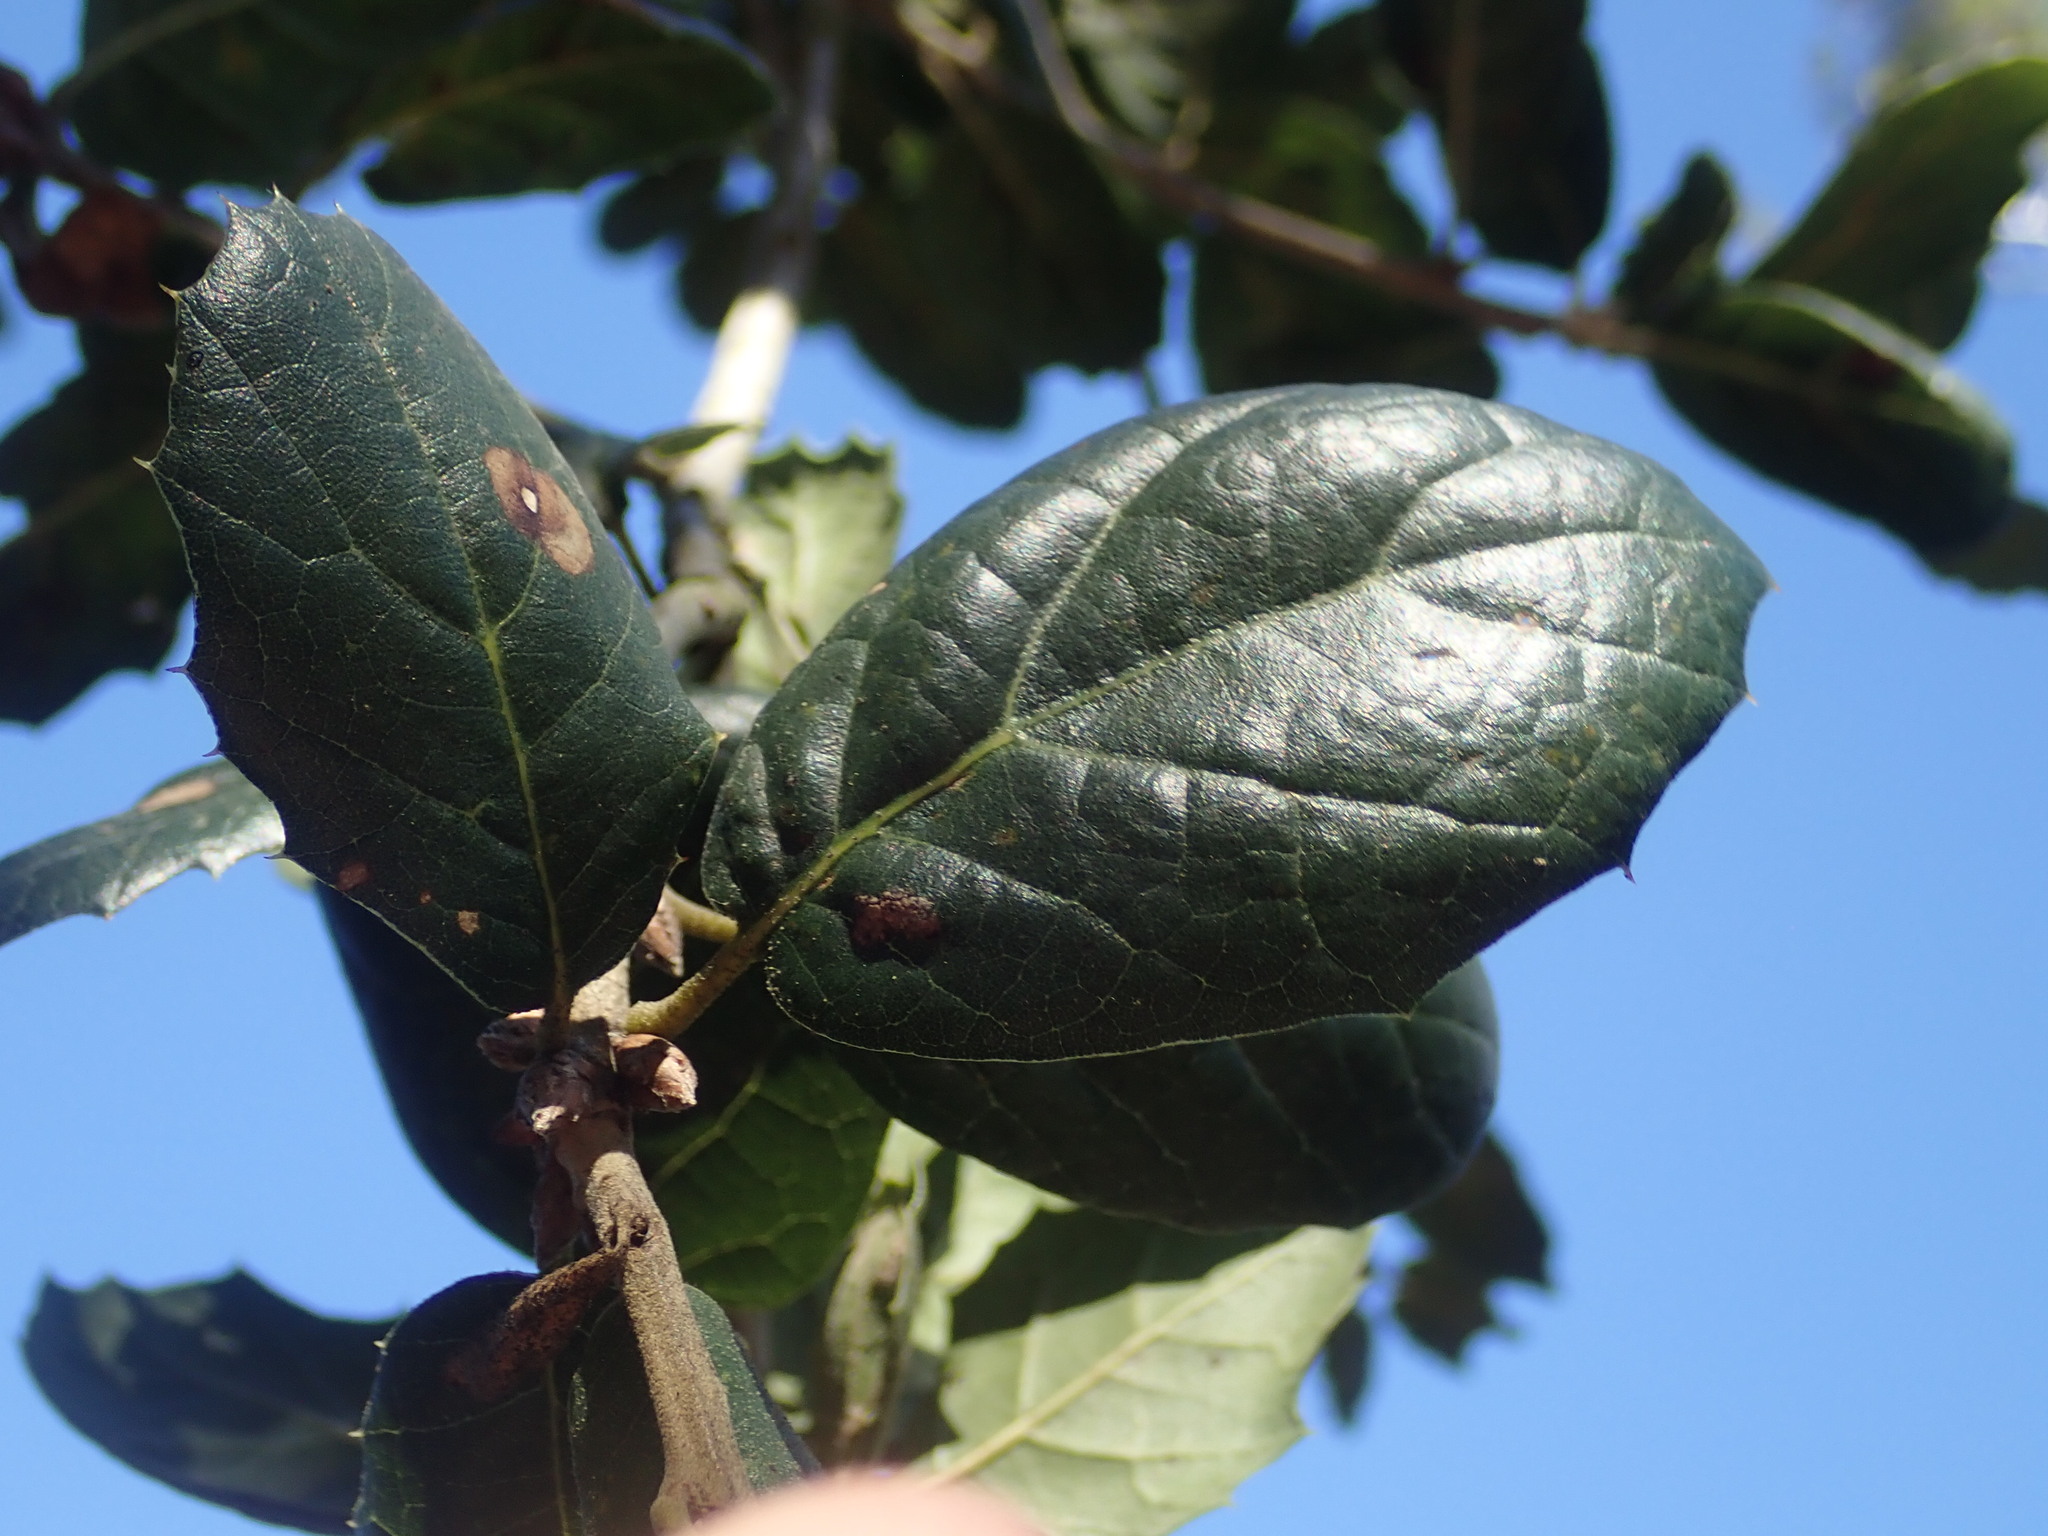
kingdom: Plantae
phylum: Tracheophyta
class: Magnoliopsida
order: Fagales
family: Fagaceae
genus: Quercus
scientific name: Quercus agrifolia
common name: California live oak
